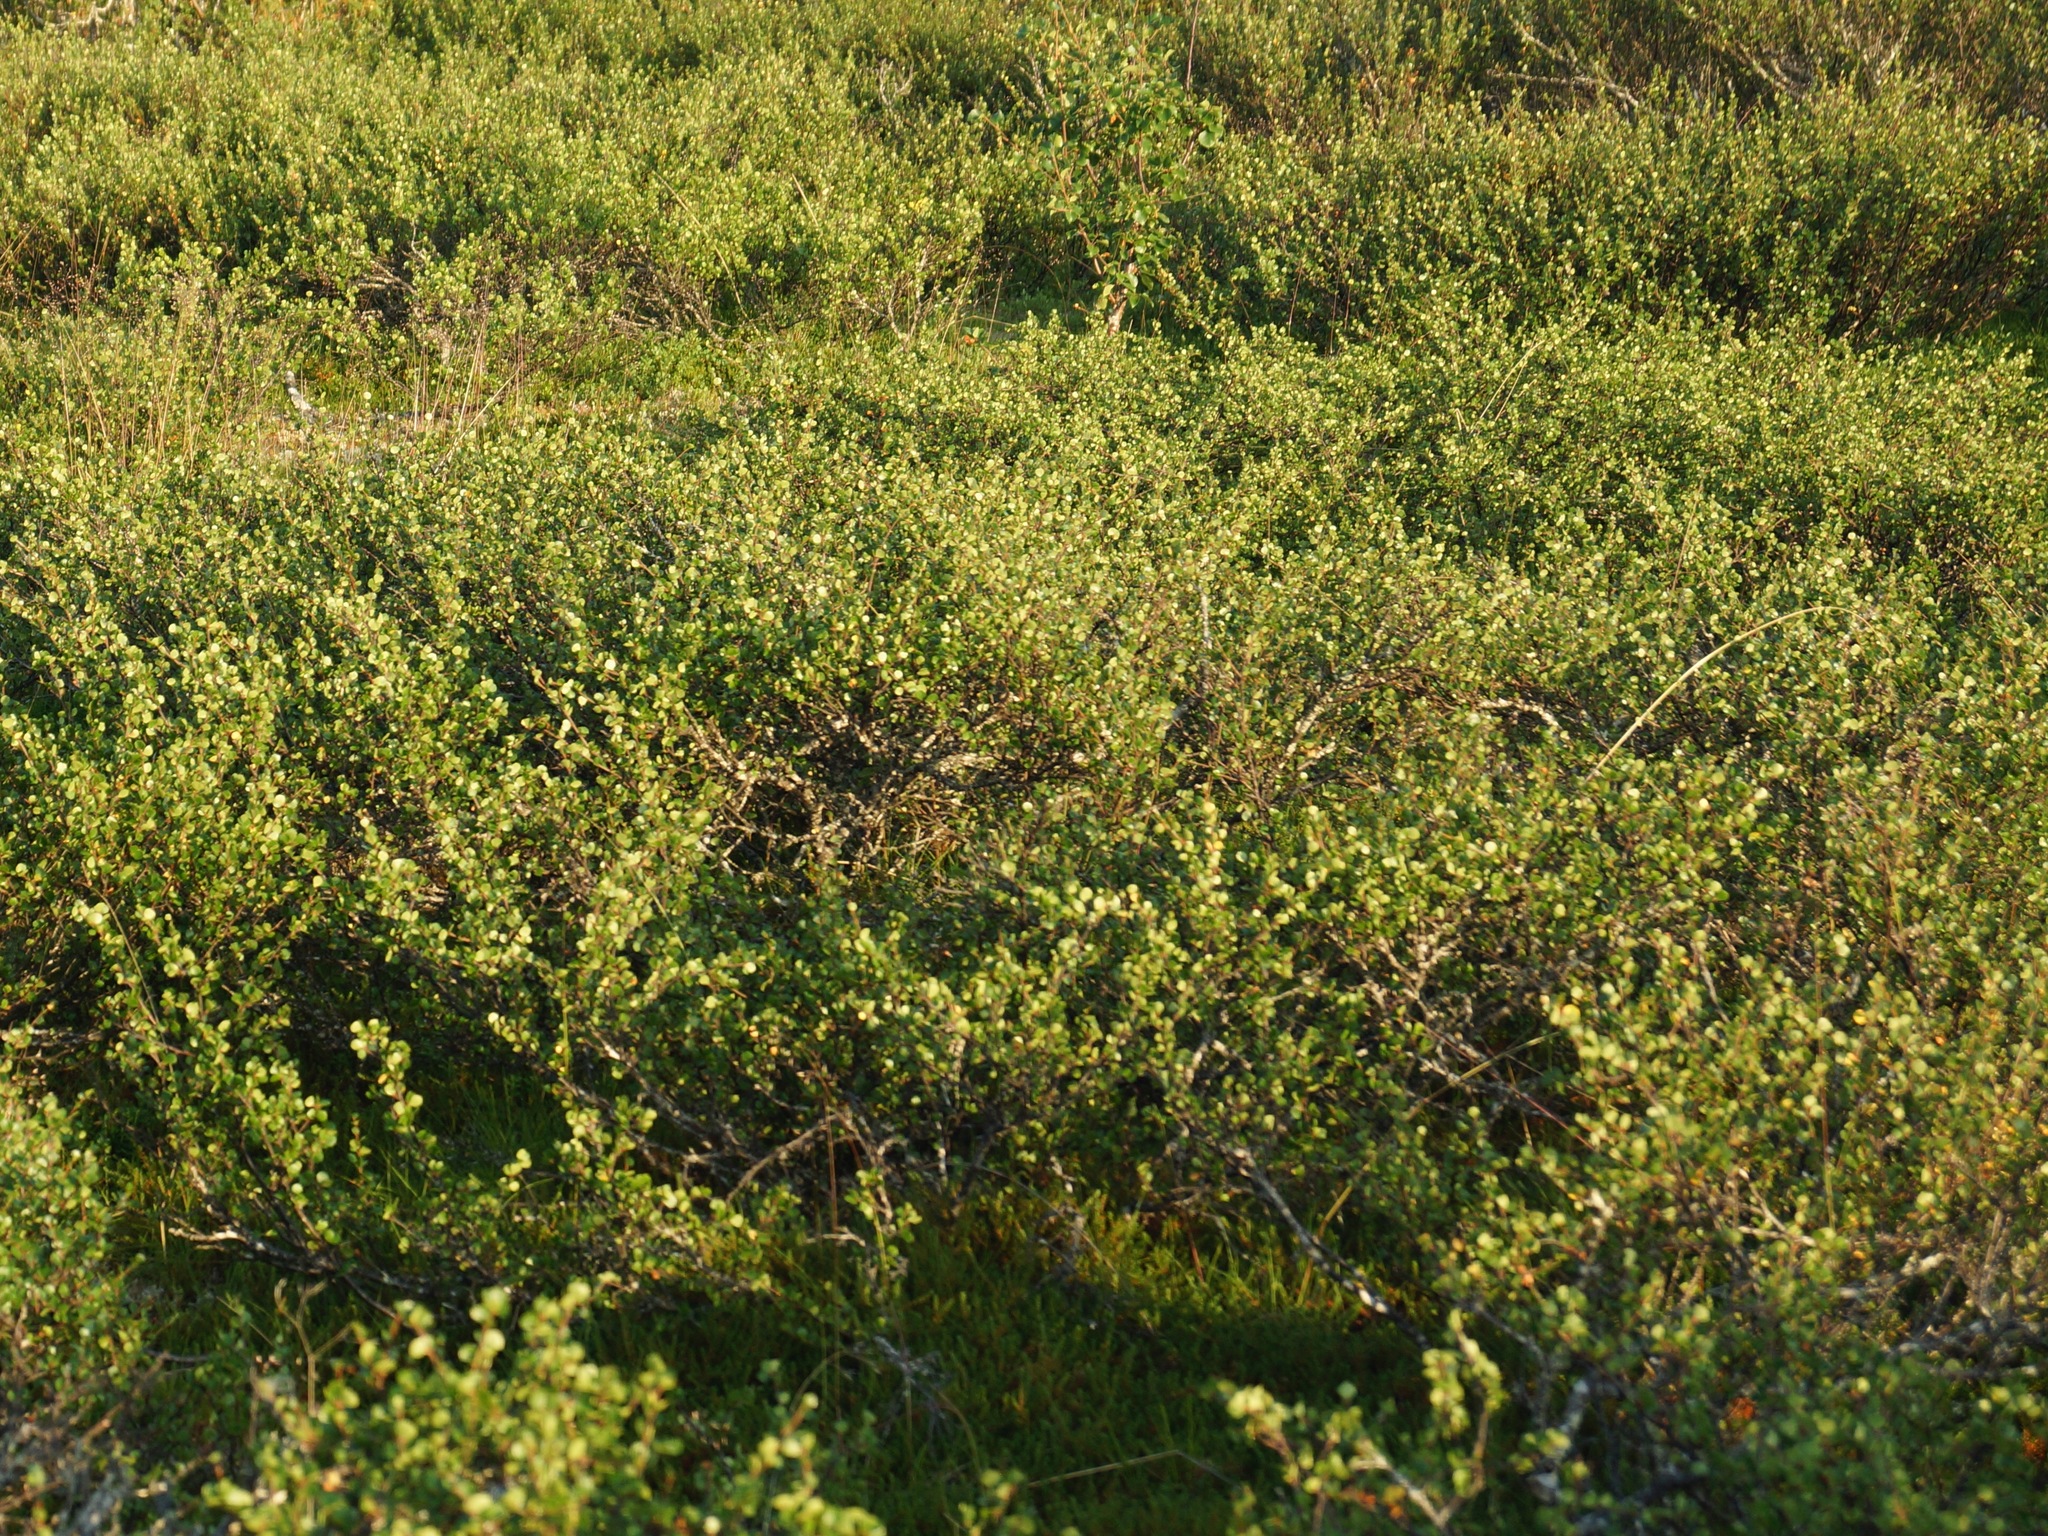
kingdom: Plantae
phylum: Tracheophyta
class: Magnoliopsida
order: Fagales
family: Betulaceae
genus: Betula
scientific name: Betula nana
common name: Arctic dwarf birch
